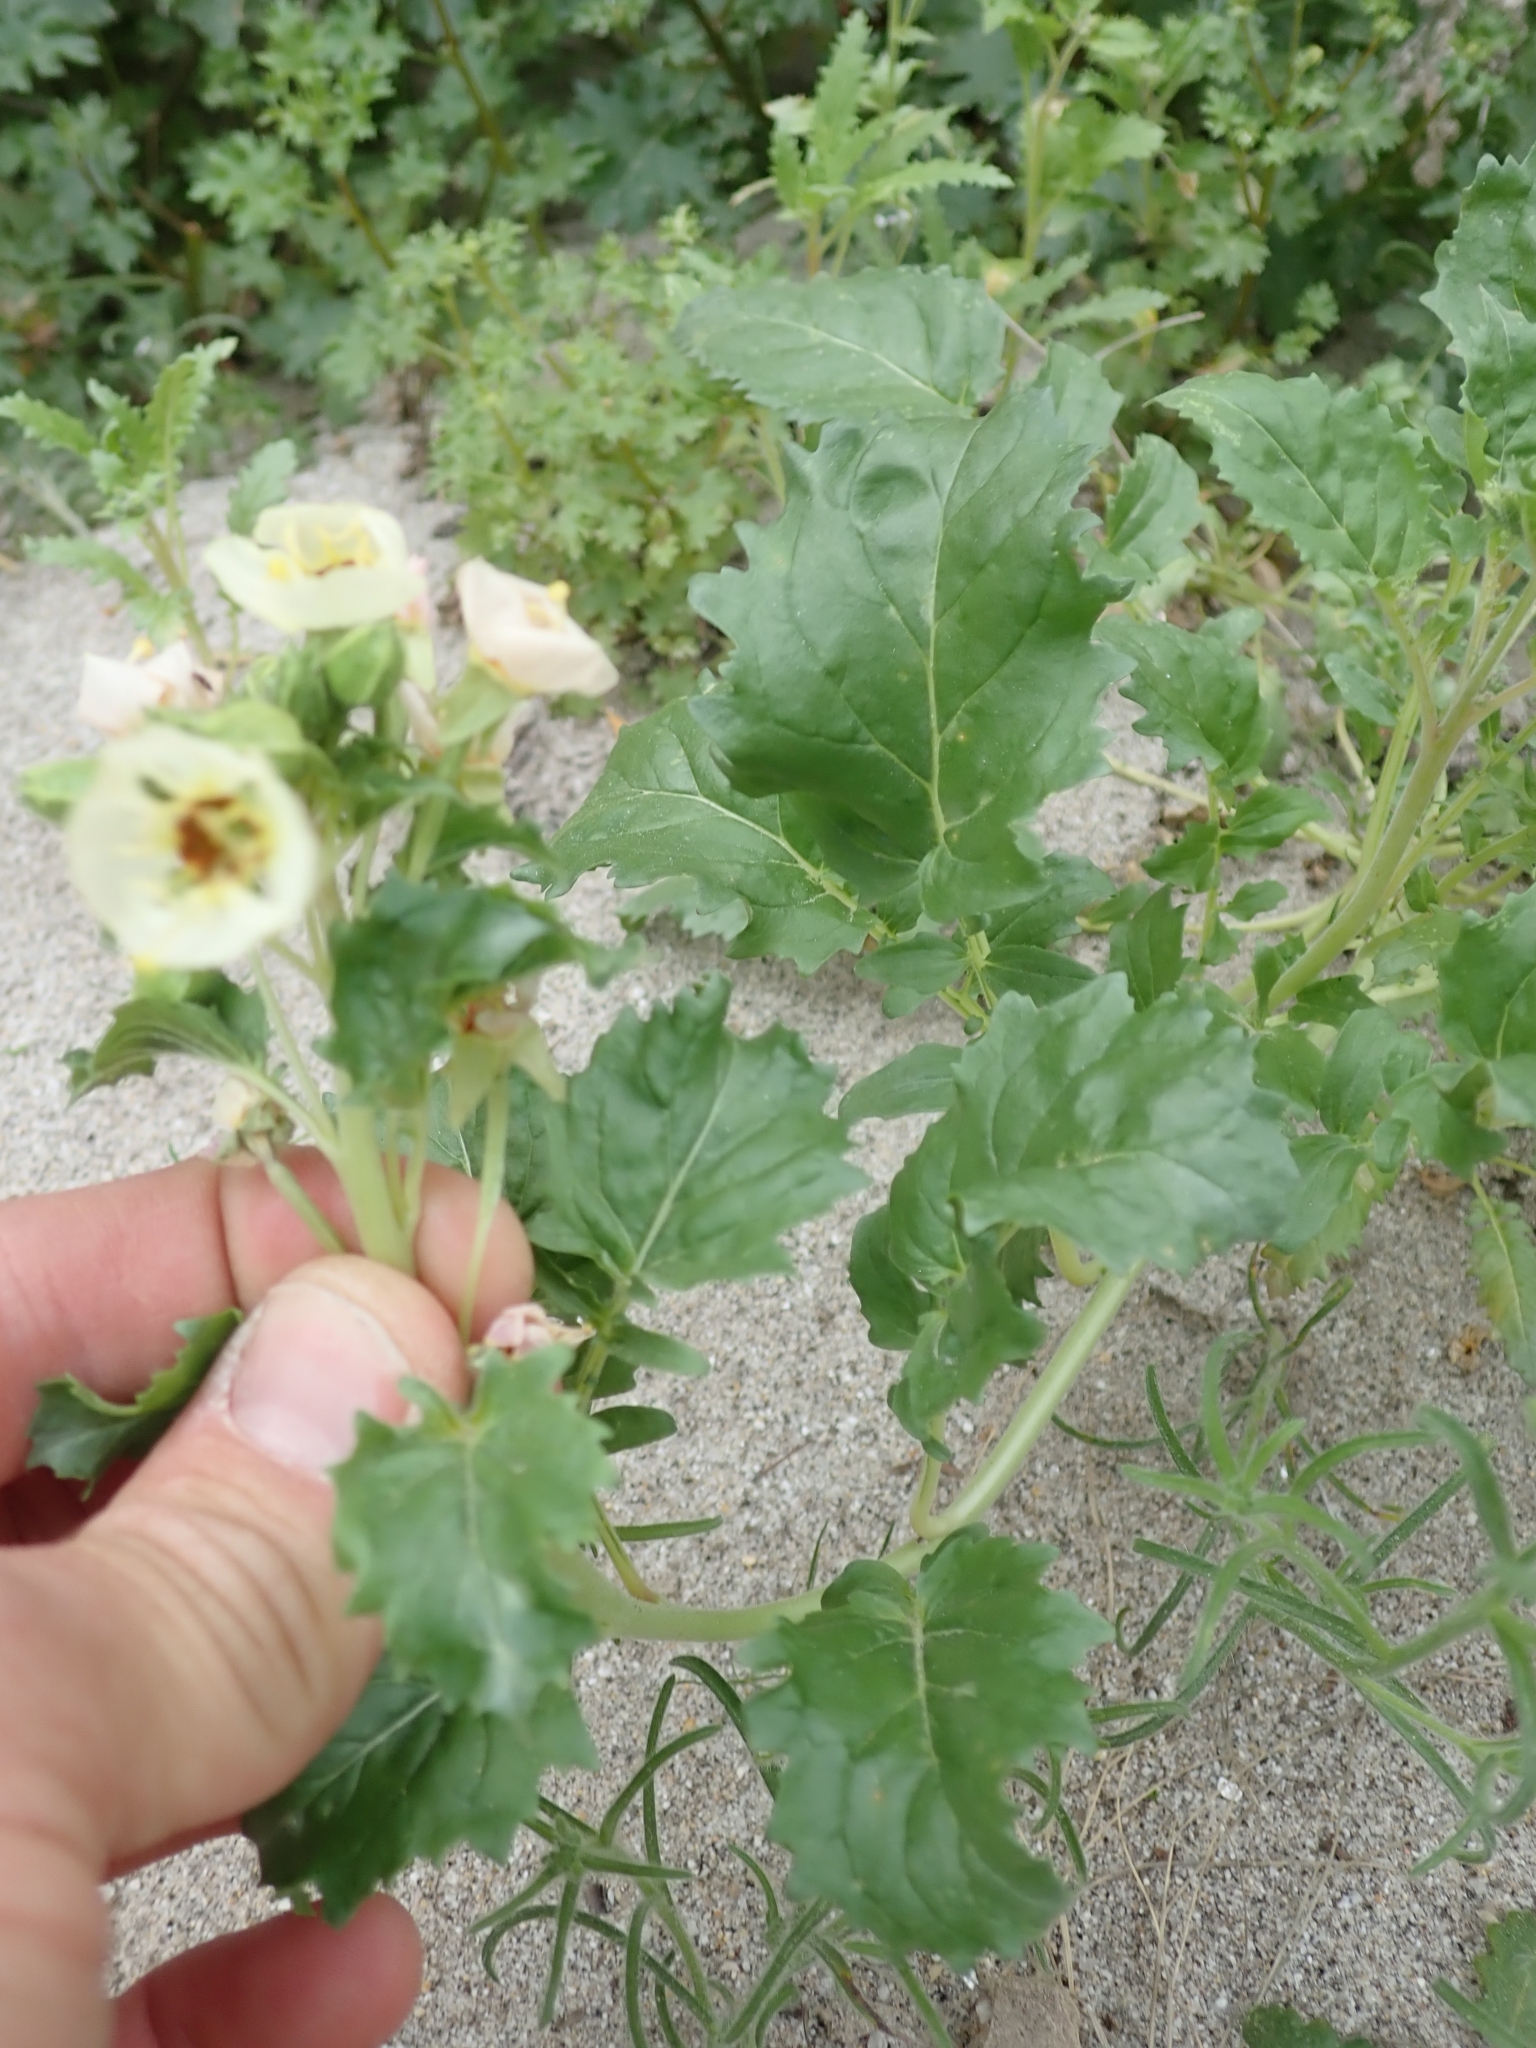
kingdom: Plantae
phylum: Tracheophyta
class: Magnoliopsida
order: Myrtales
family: Onagraceae
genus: Chylismia
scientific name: Chylismia claviformis
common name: Browneyes
